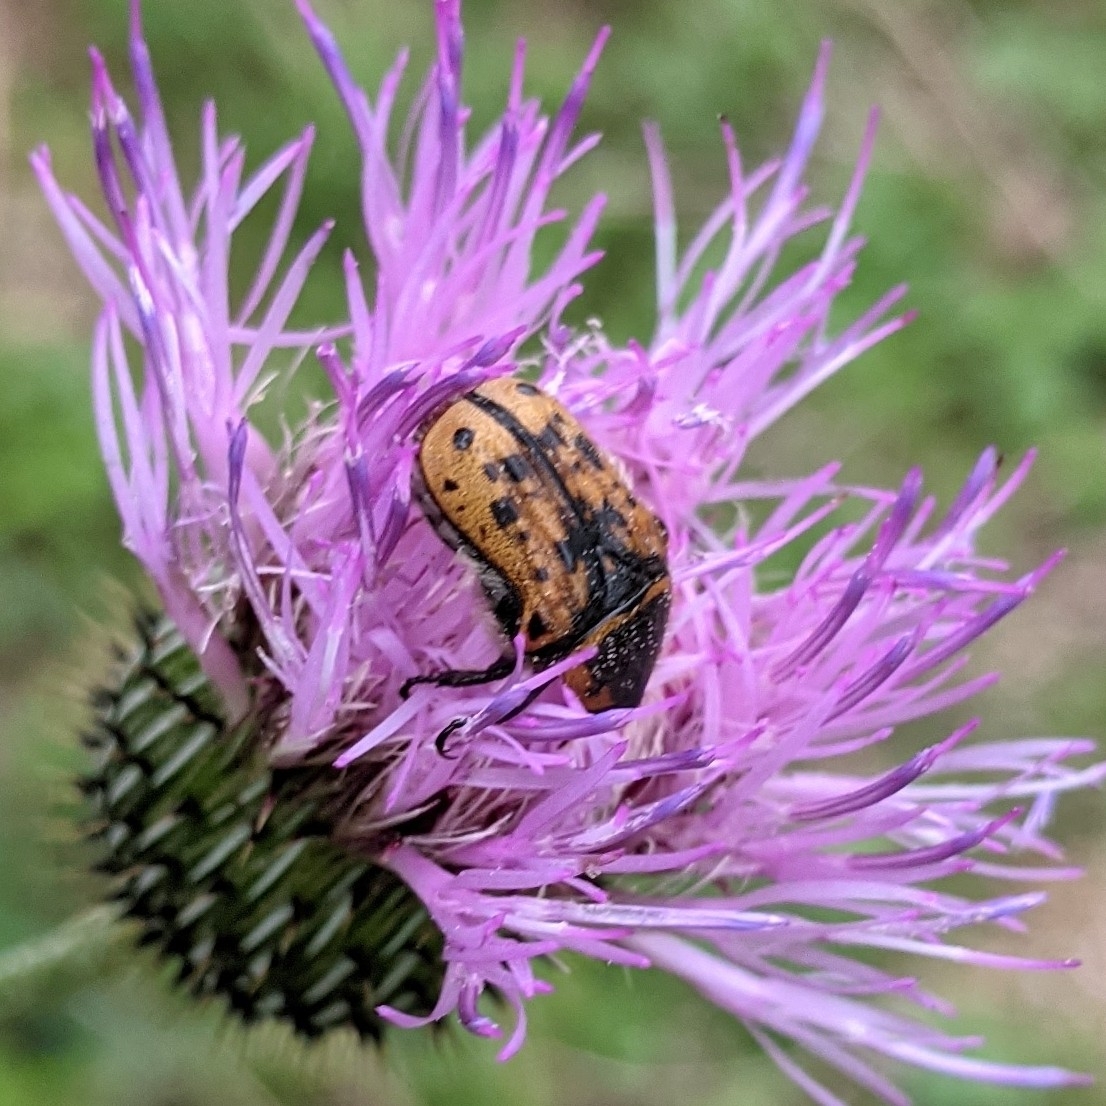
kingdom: Animalia
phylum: Arthropoda
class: Insecta
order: Coleoptera
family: Scarabaeidae
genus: Euphoria
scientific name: Euphoria kernii
